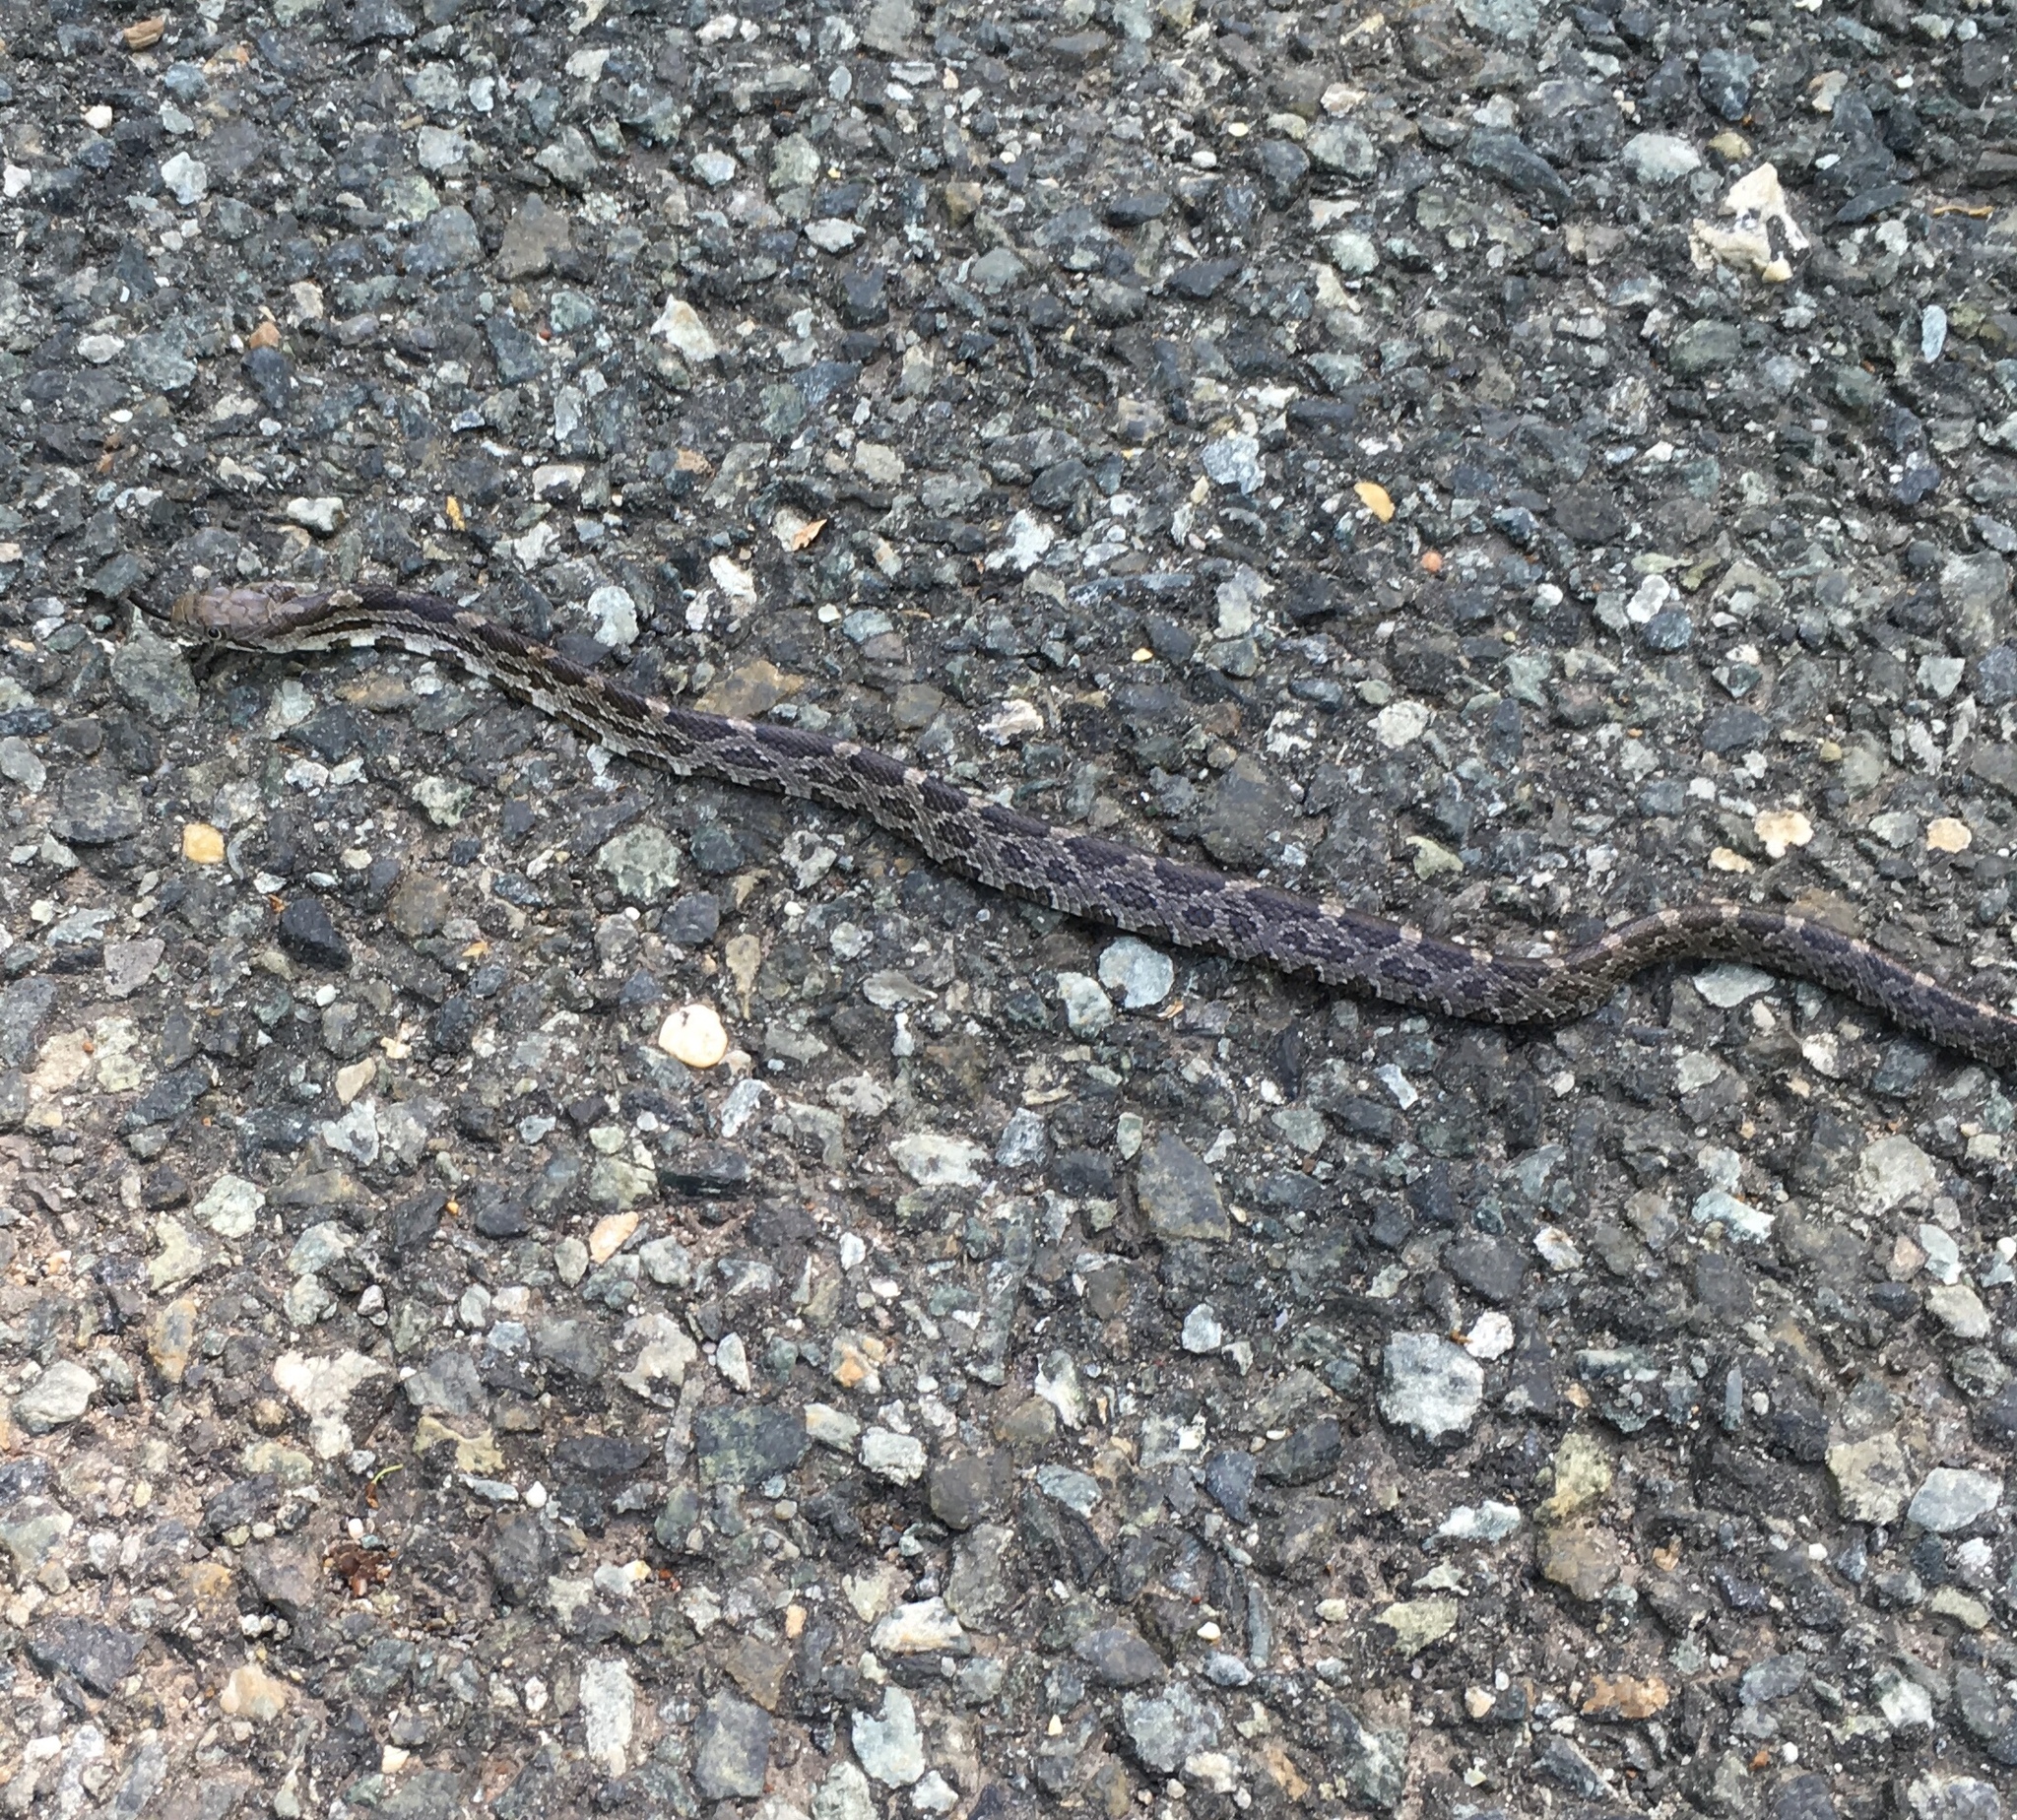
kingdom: Animalia
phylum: Chordata
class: Squamata
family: Colubridae
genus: Pantherophis
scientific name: Pantherophis alleghaniensis
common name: Eastern rat snake
